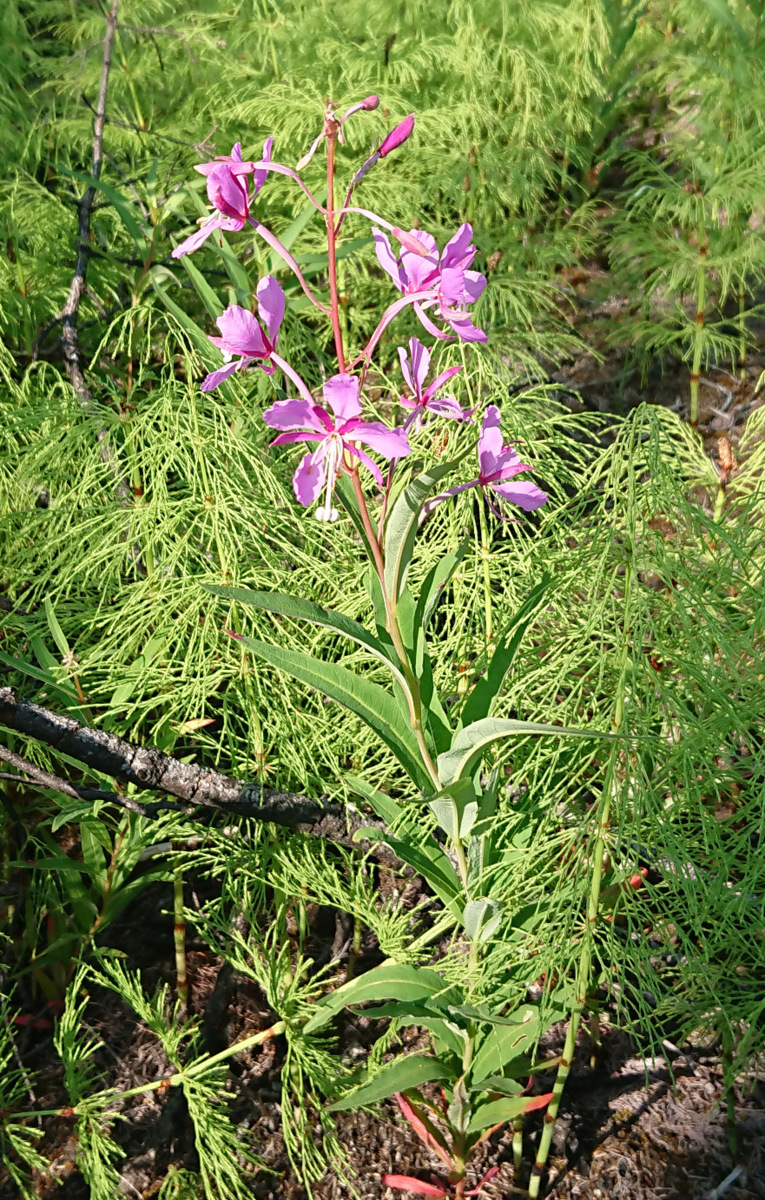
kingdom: Plantae
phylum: Tracheophyta
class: Magnoliopsida
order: Myrtales
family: Onagraceae
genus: Chamaenerion
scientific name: Chamaenerion angustifolium
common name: Fireweed
